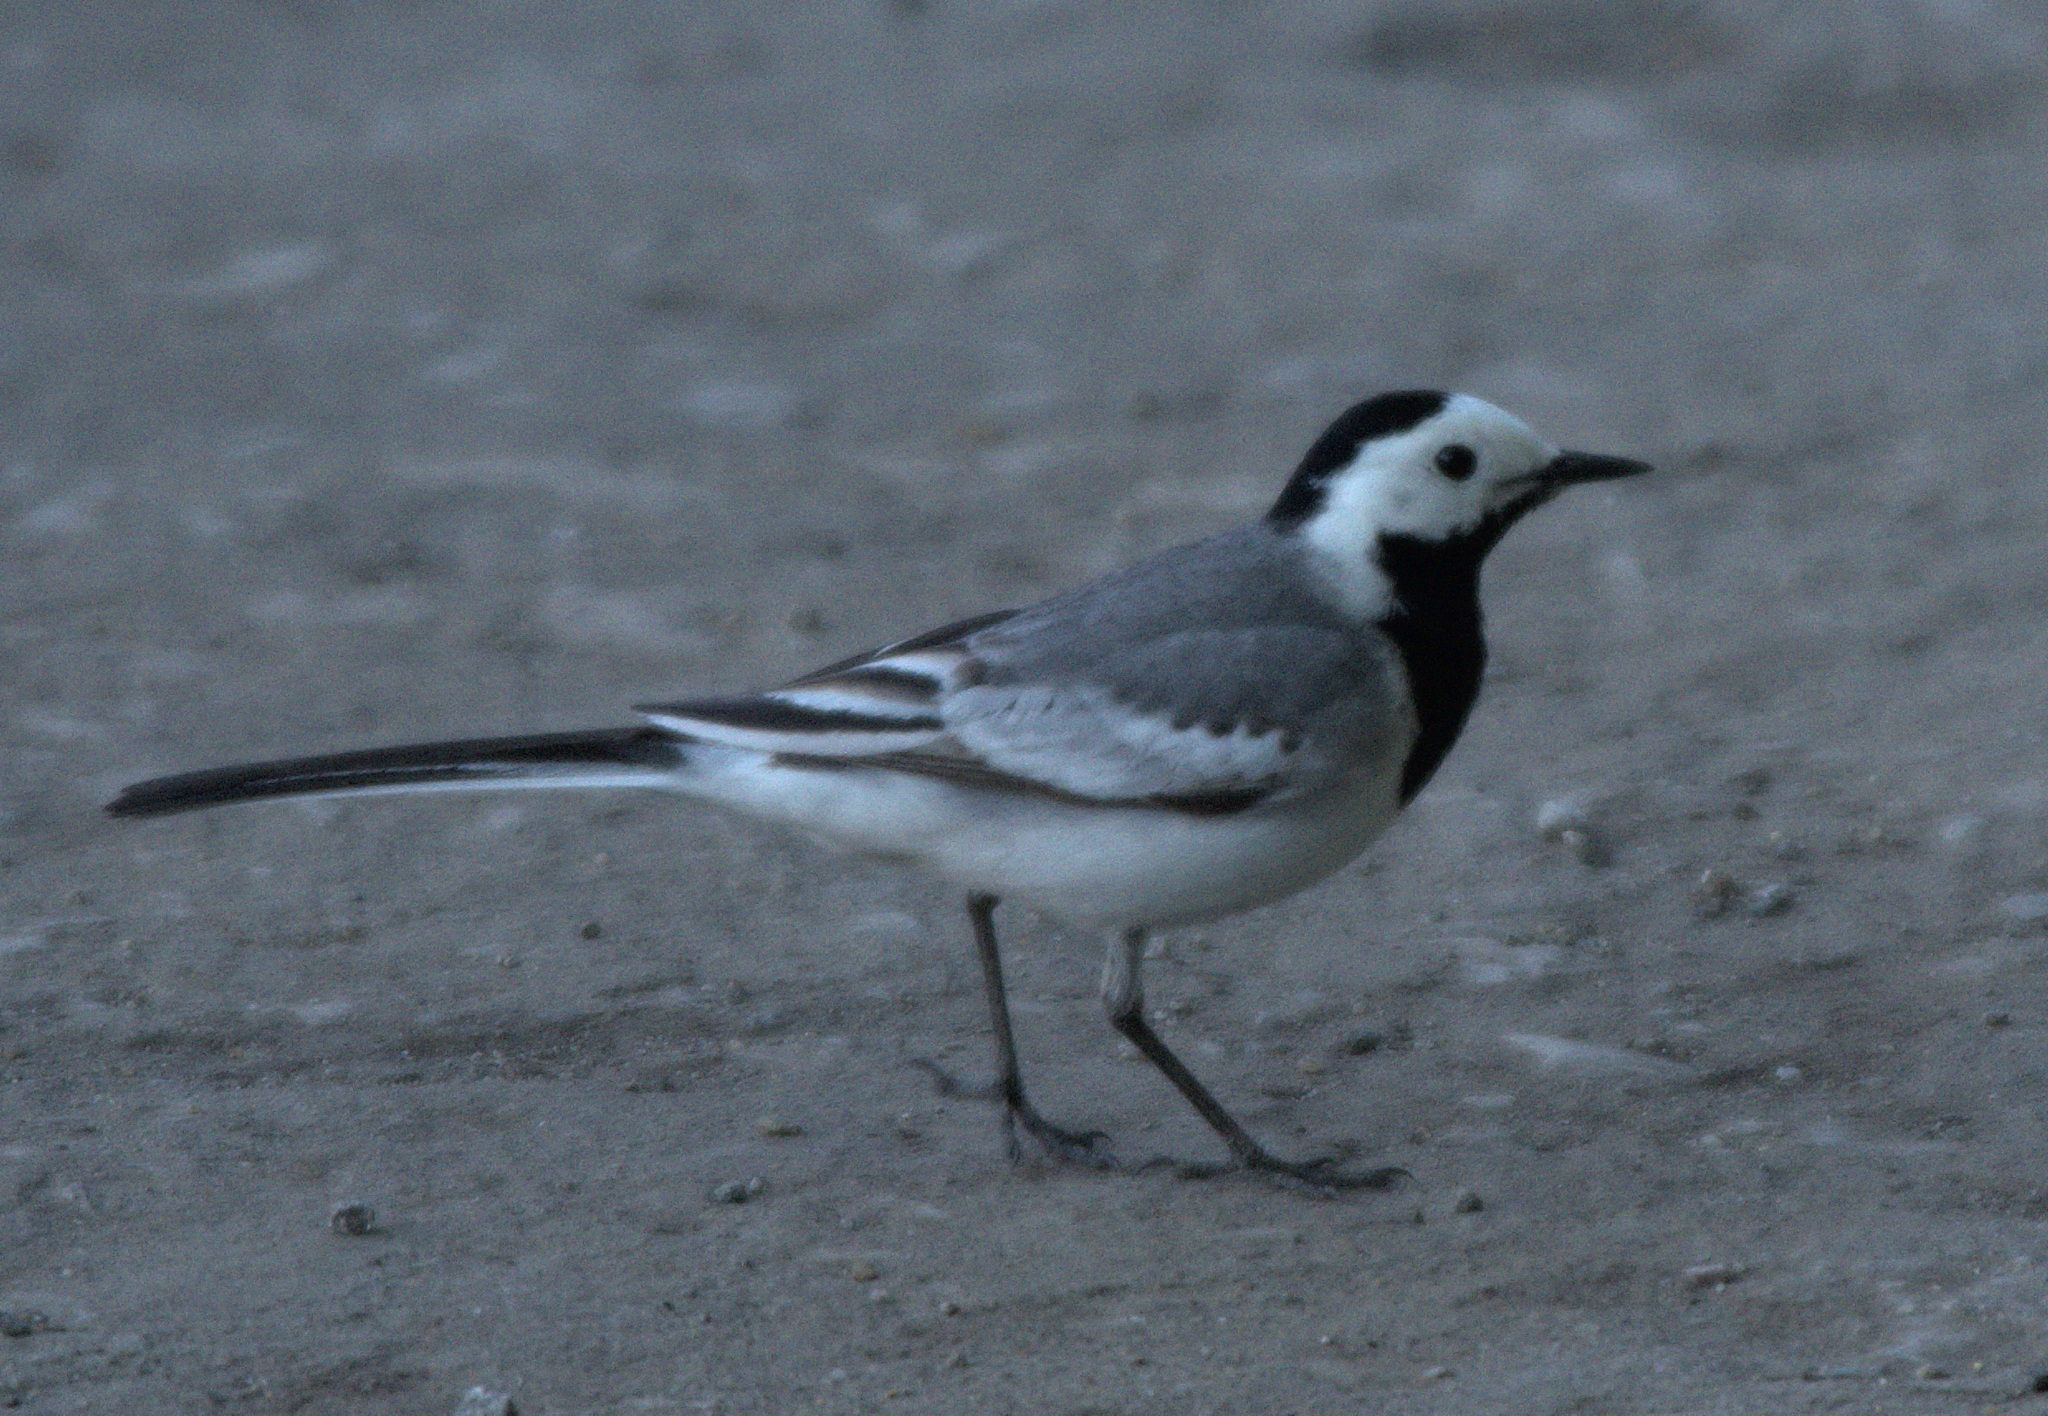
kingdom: Animalia
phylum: Chordata
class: Aves
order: Passeriformes
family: Motacillidae
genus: Motacilla
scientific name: Motacilla alba
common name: White wagtail
